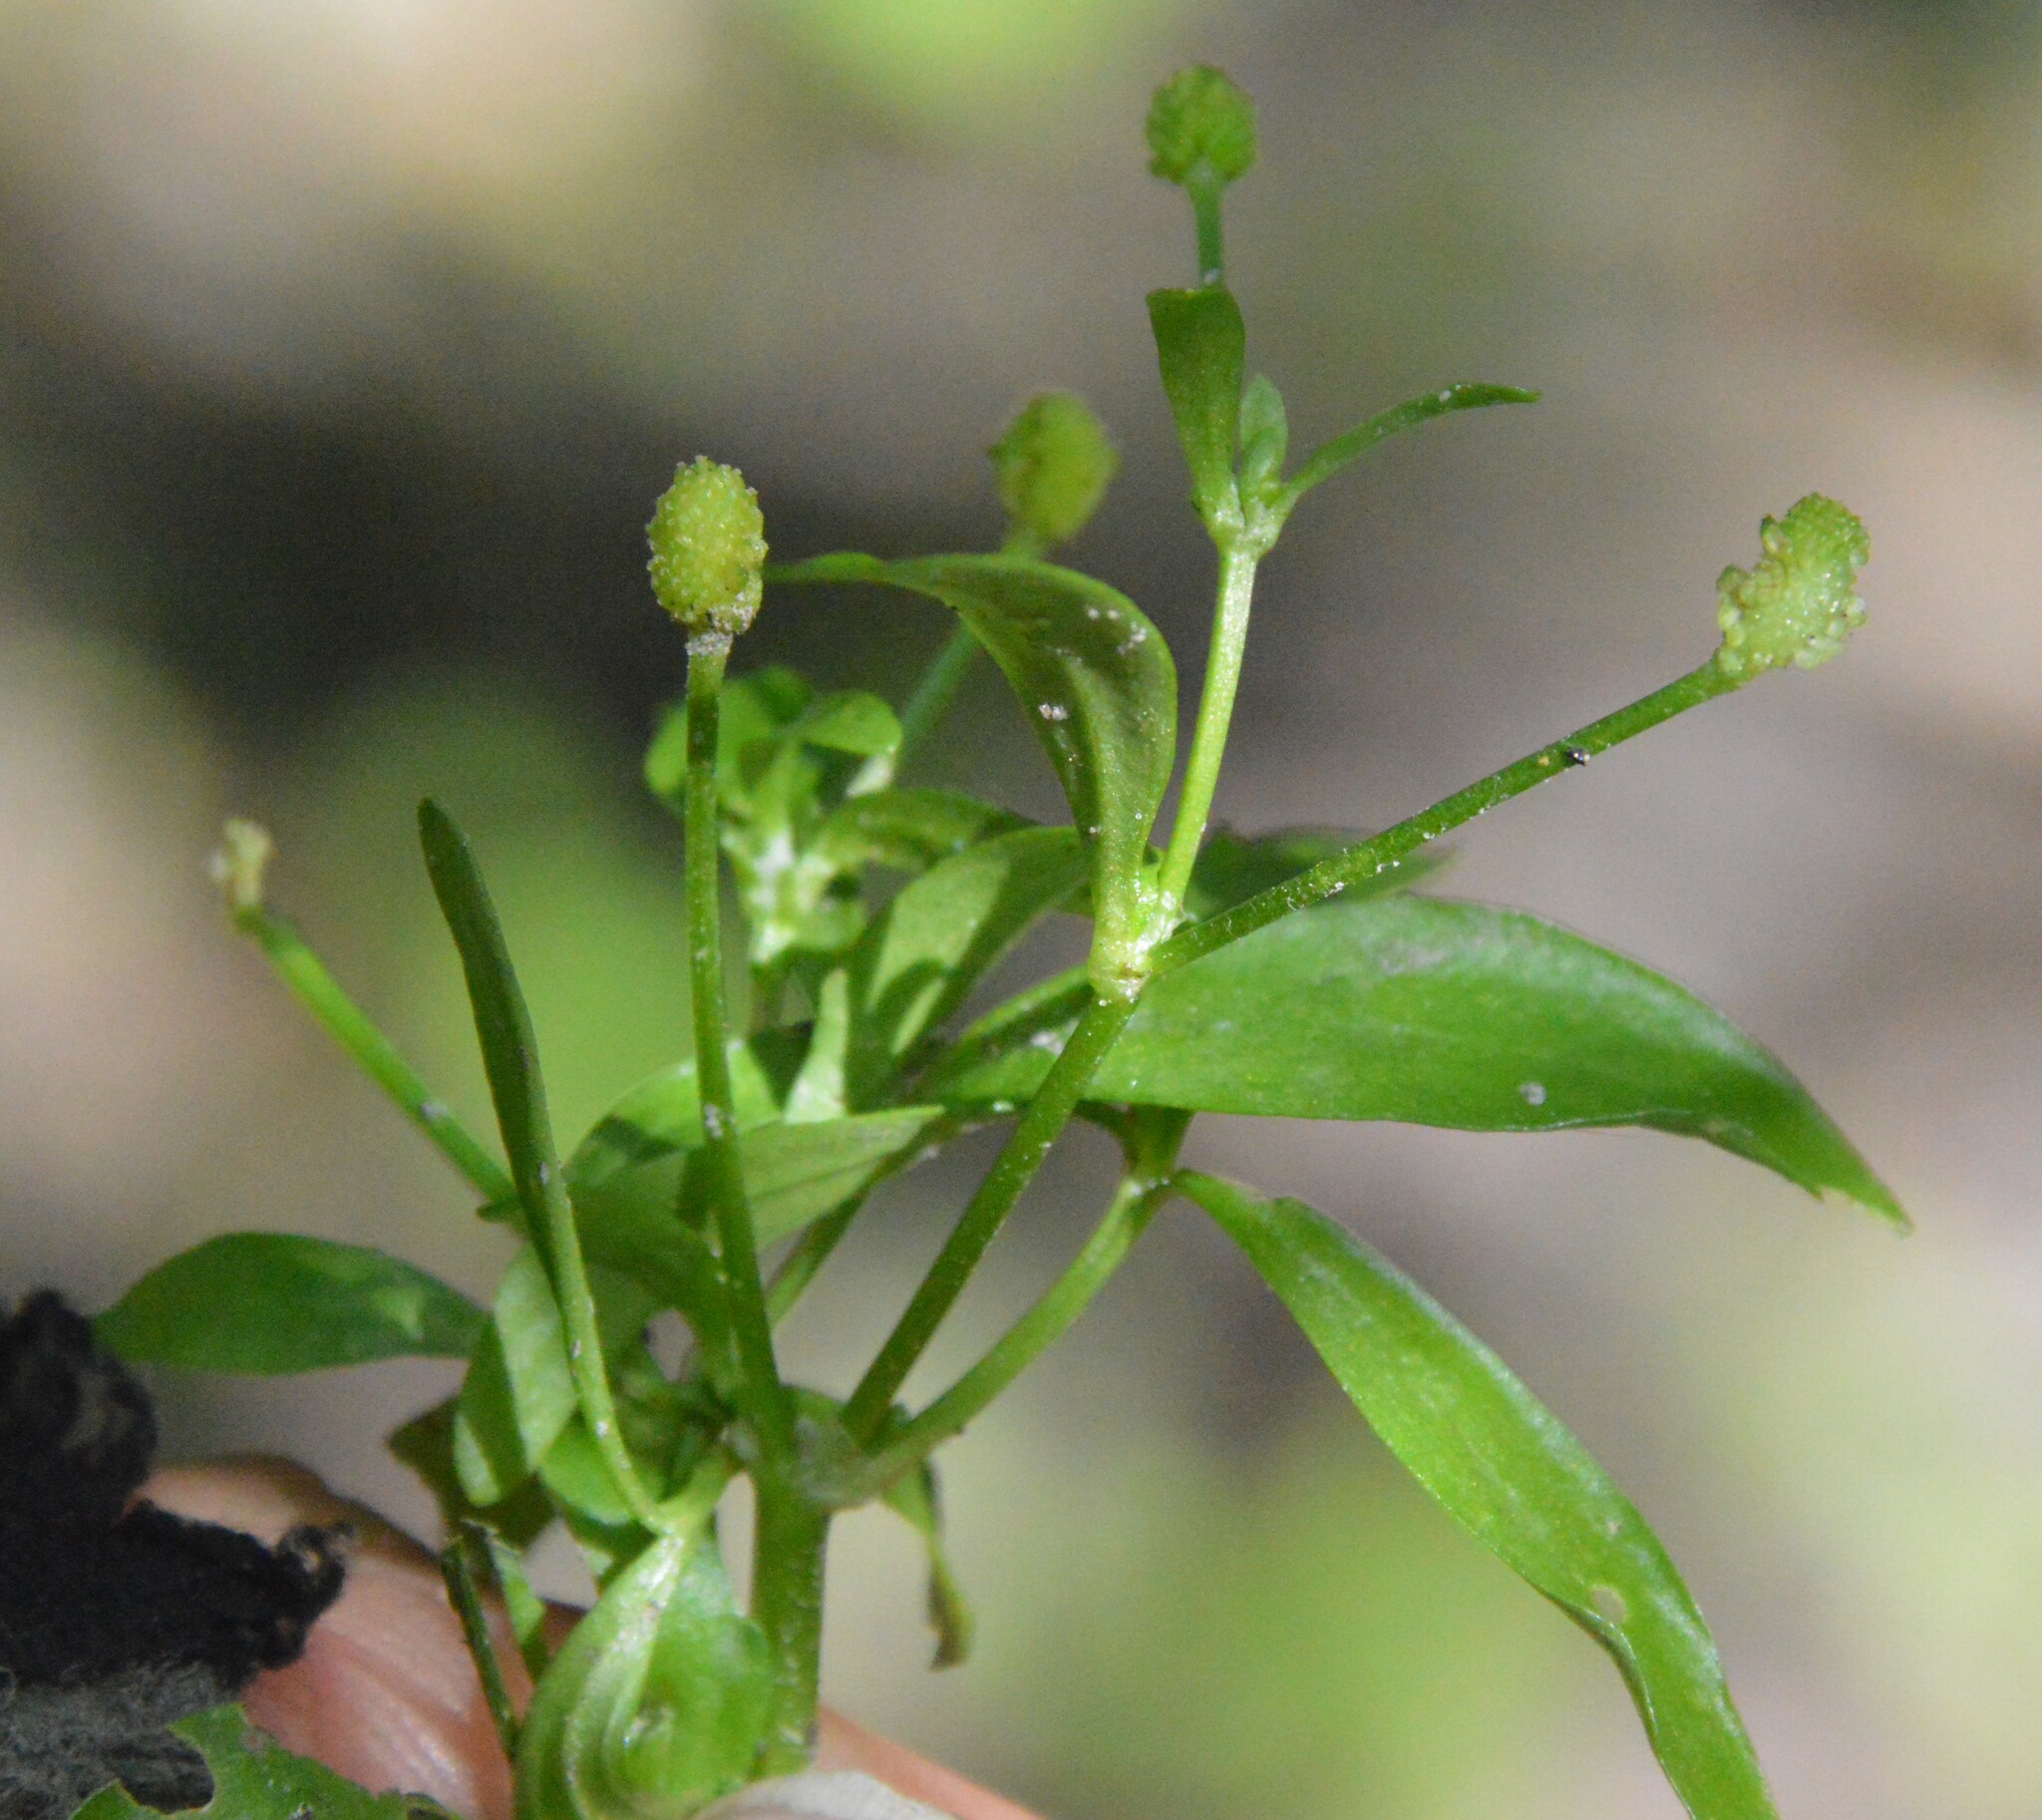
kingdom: Plantae
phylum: Tracheophyta
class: Magnoliopsida
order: Ranunculales
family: Ranunculaceae
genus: Ranunculus
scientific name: Ranunculus sceleratus
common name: Celery-leaved buttercup
